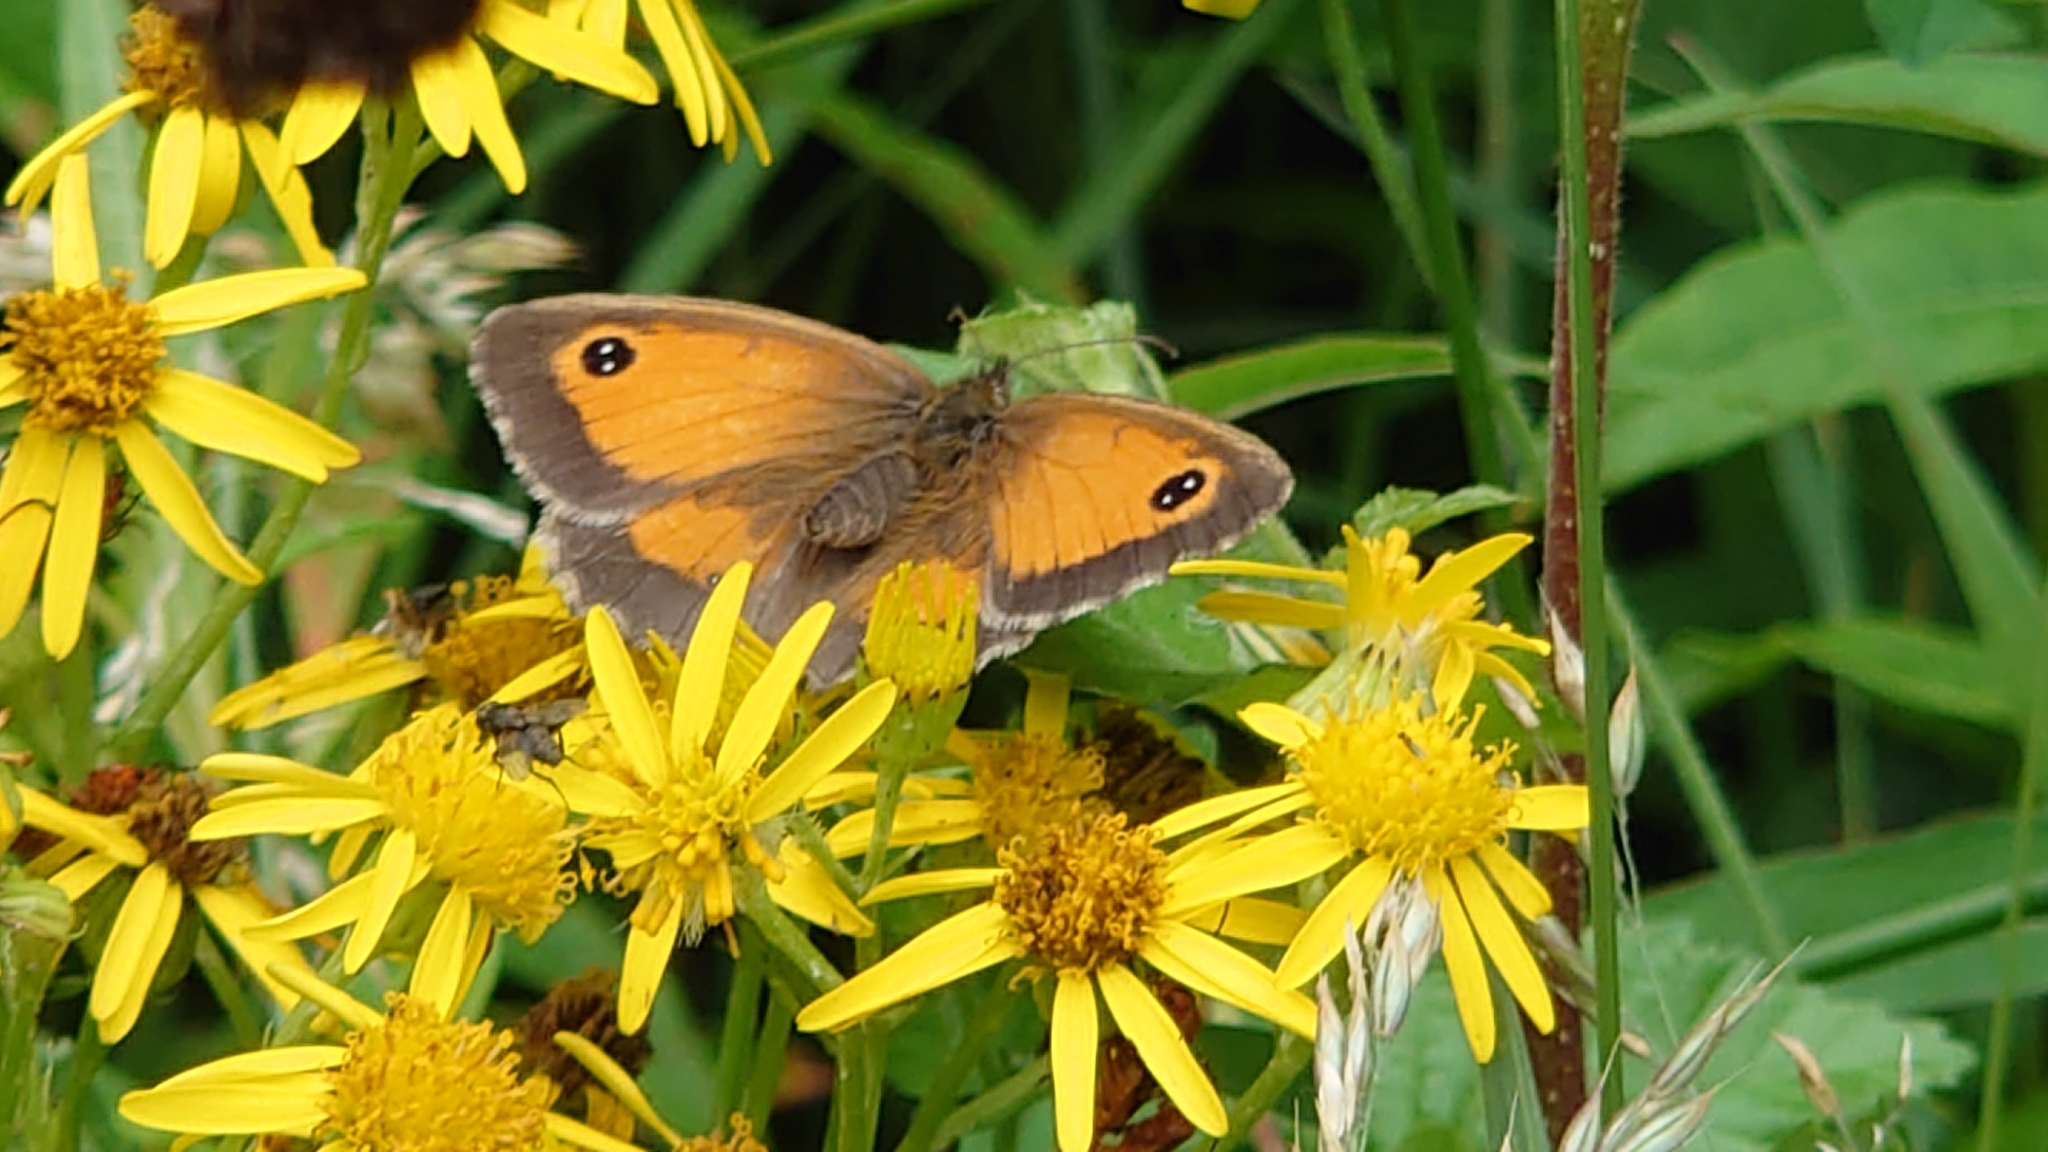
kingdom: Animalia
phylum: Arthropoda
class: Insecta
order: Lepidoptera
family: Nymphalidae
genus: Pyronia
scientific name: Pyronia tithonus
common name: Gatekeeper
